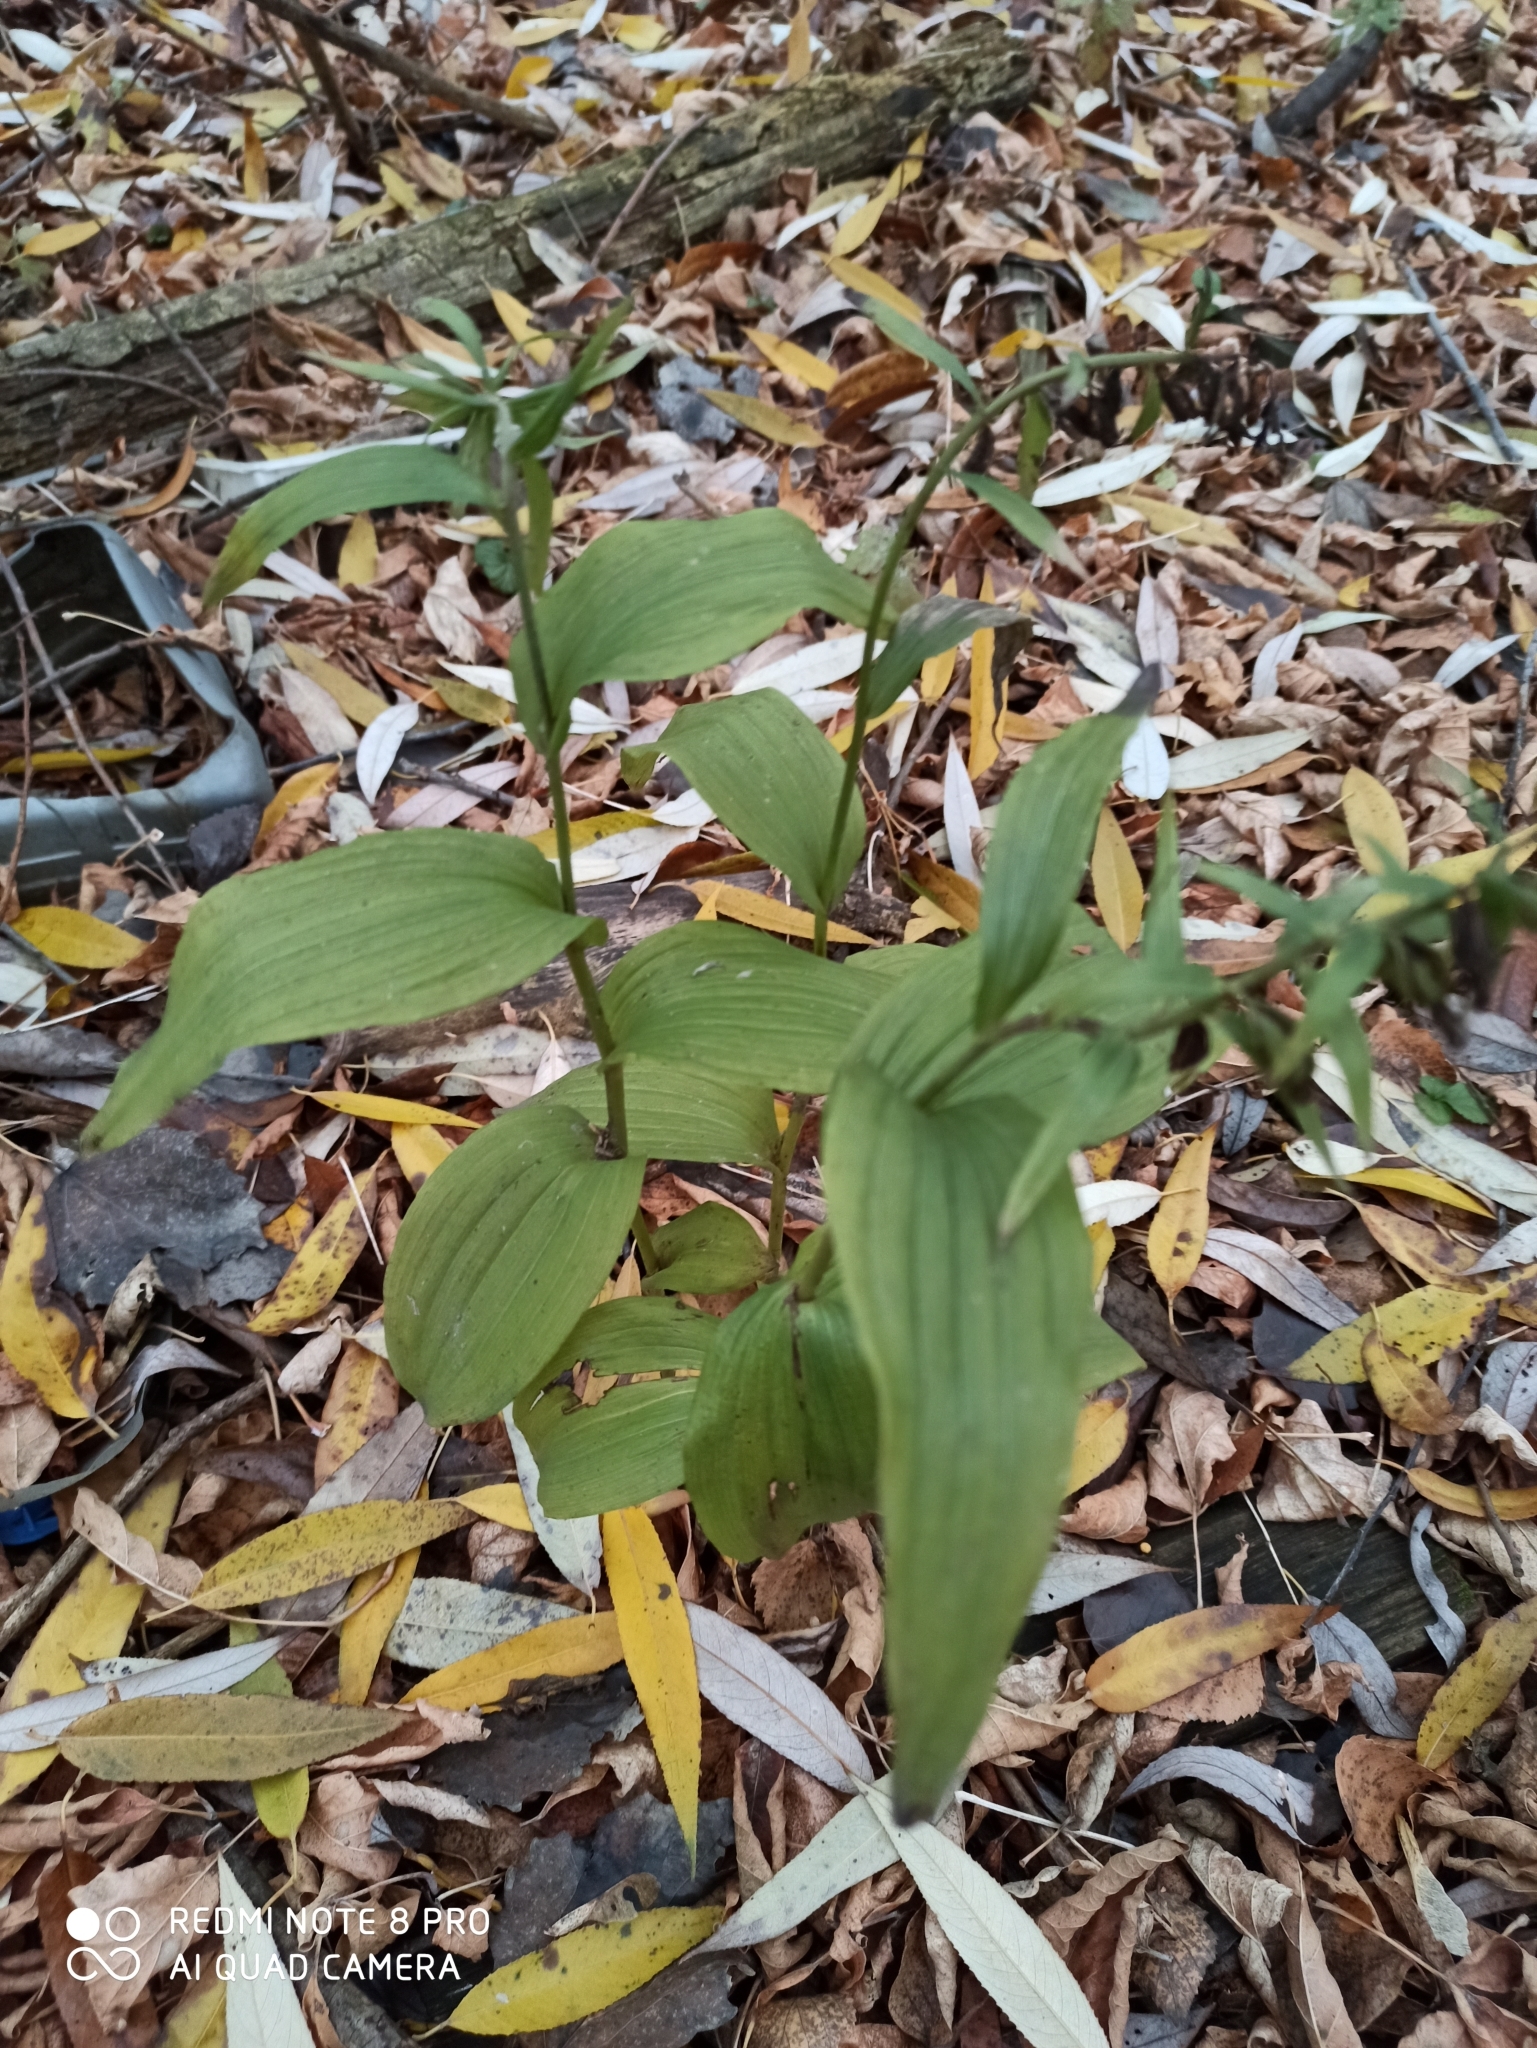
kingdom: Plantae
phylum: Tracheophyta
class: Liliopsida
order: Asparagales
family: Orchidaceae
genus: Epipactis
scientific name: Epipactis helleborine
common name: Broad-leaved helleborine
